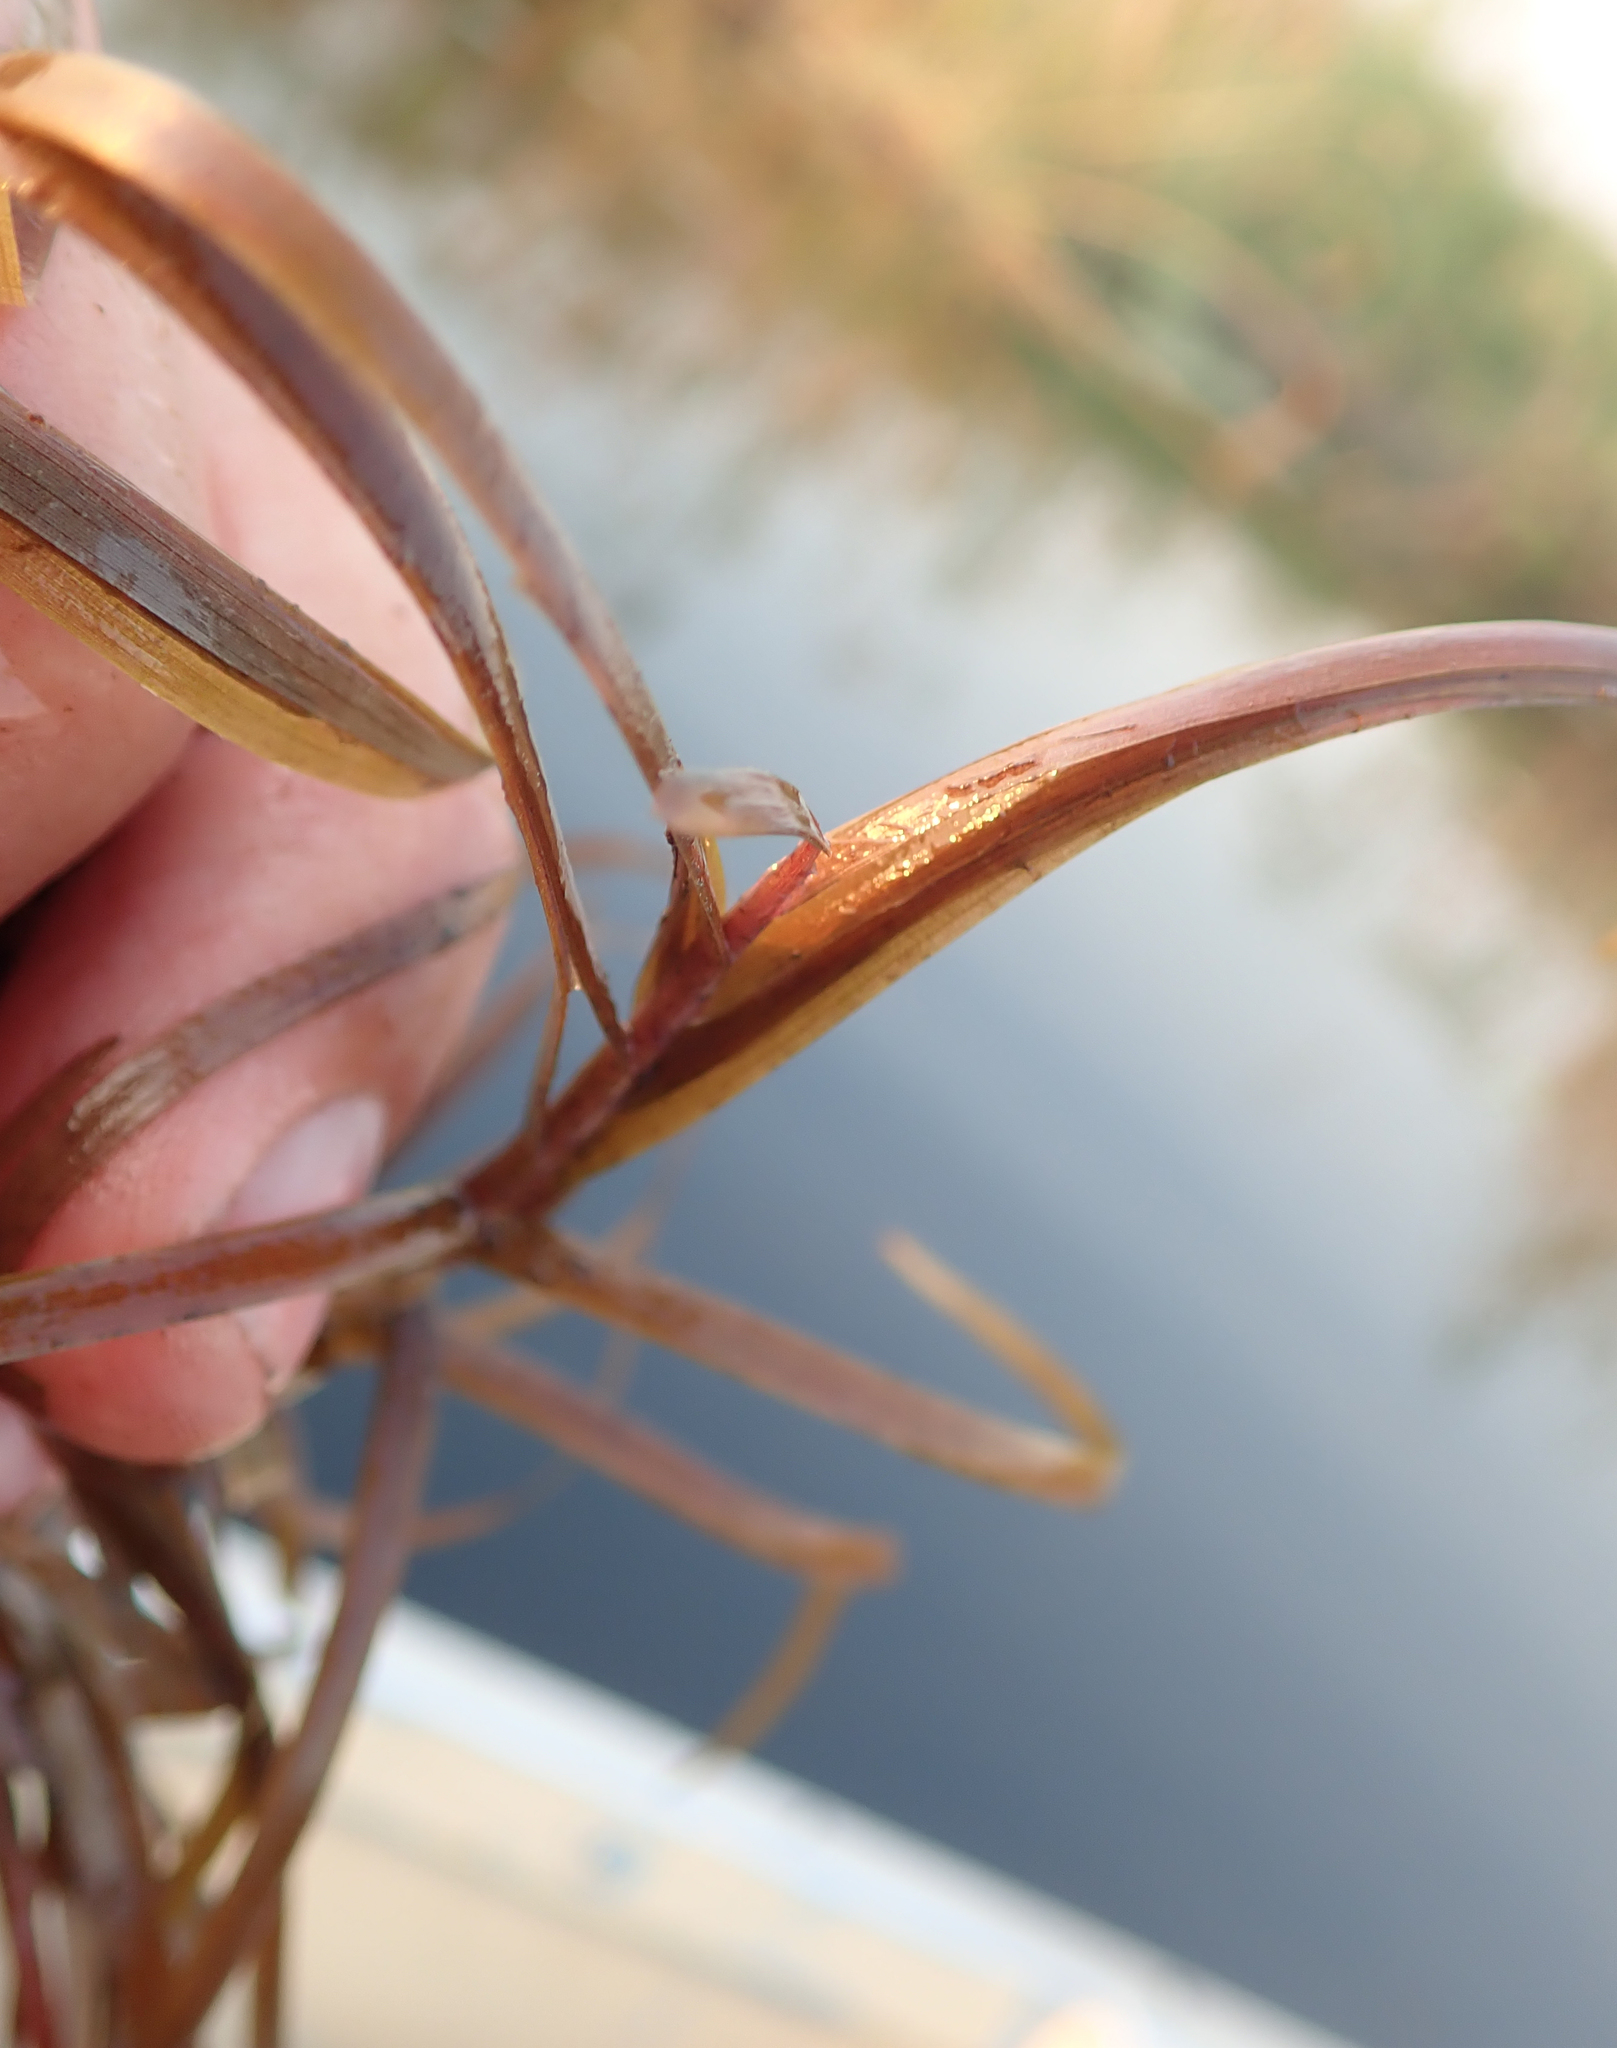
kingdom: Plantae
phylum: Tracheophyta
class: Liliopsida
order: Commelinales
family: Pontederiaceae
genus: Pontederia
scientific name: Pontederia natans
